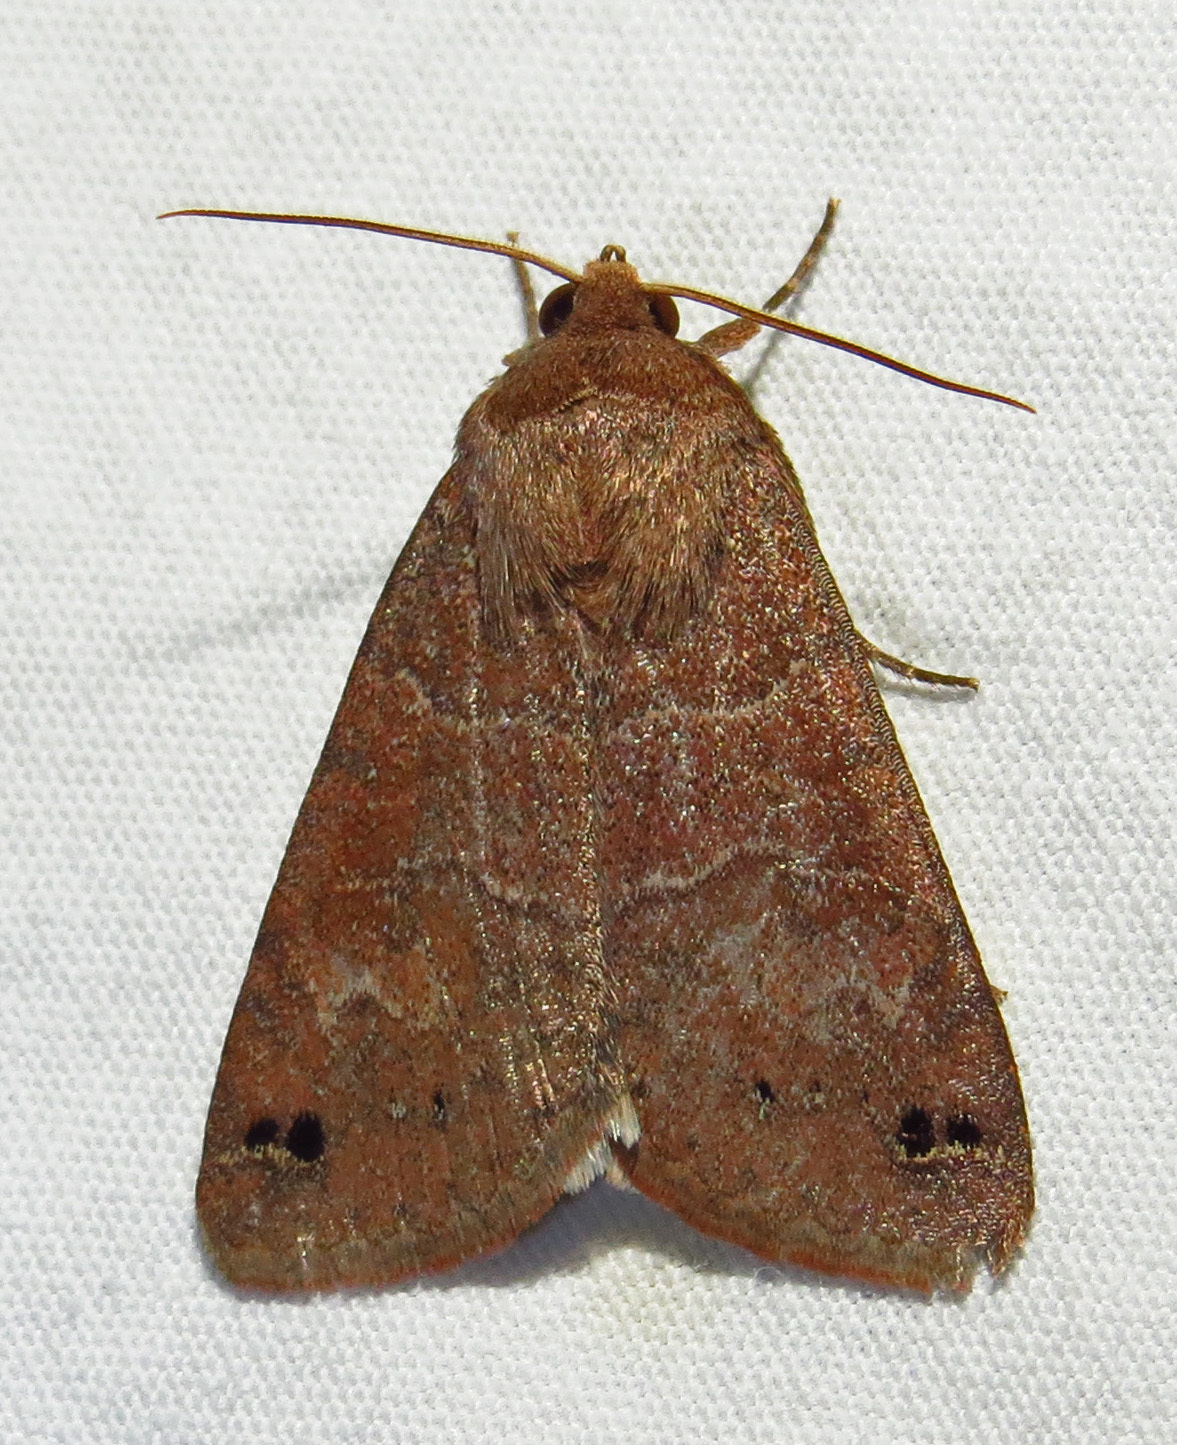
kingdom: Animalia
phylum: Arthropoda
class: Insecta
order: Lepidoptera
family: Erebidae
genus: Cissusa
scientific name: Cissusa spadix
